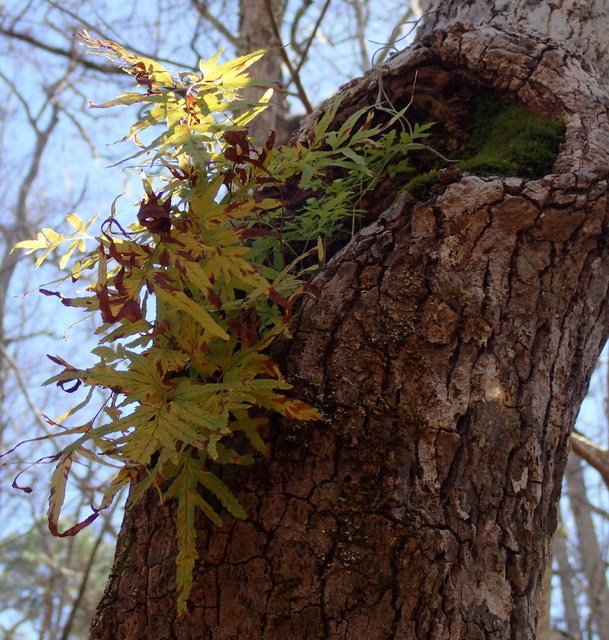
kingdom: Plantae
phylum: Tracheophyta
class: Polypodiopsida
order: Schizaeales
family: Lygodiaceae
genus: Lygodium
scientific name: Lygodium japonicum
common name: Japanese climbing fern
